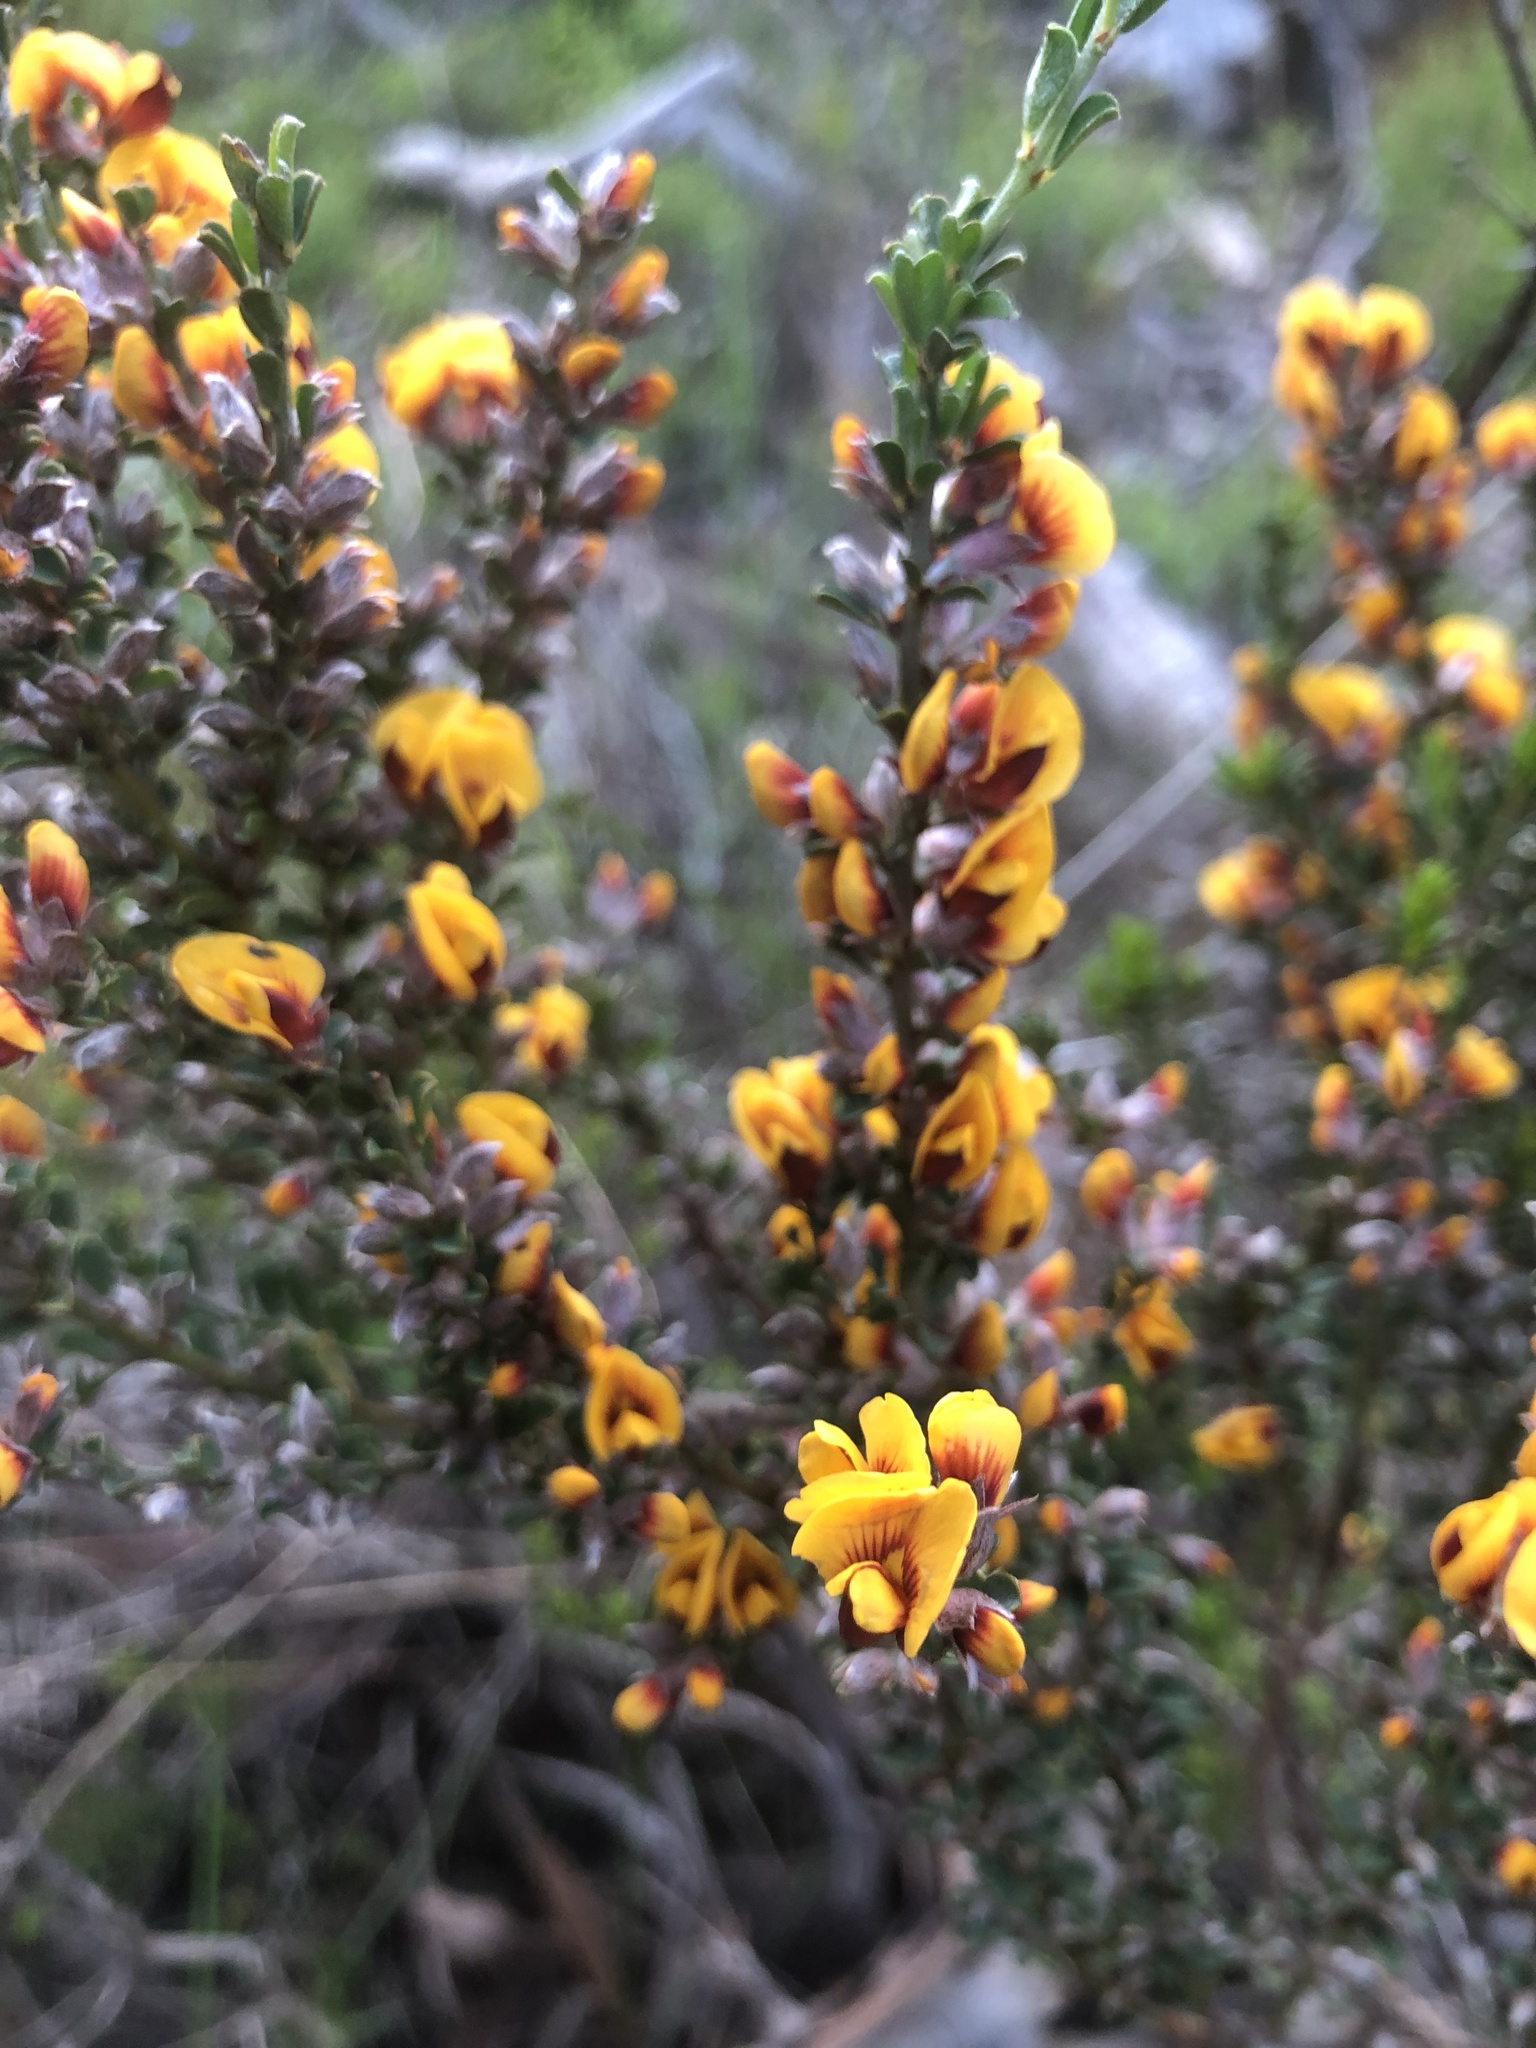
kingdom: Plantae
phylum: Tracheophyta
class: Magnoliopsida
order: Fabales
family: Fabaceae
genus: Pultenaea
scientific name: Pultenaea largiflorens
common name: Twiggy bush-pea
